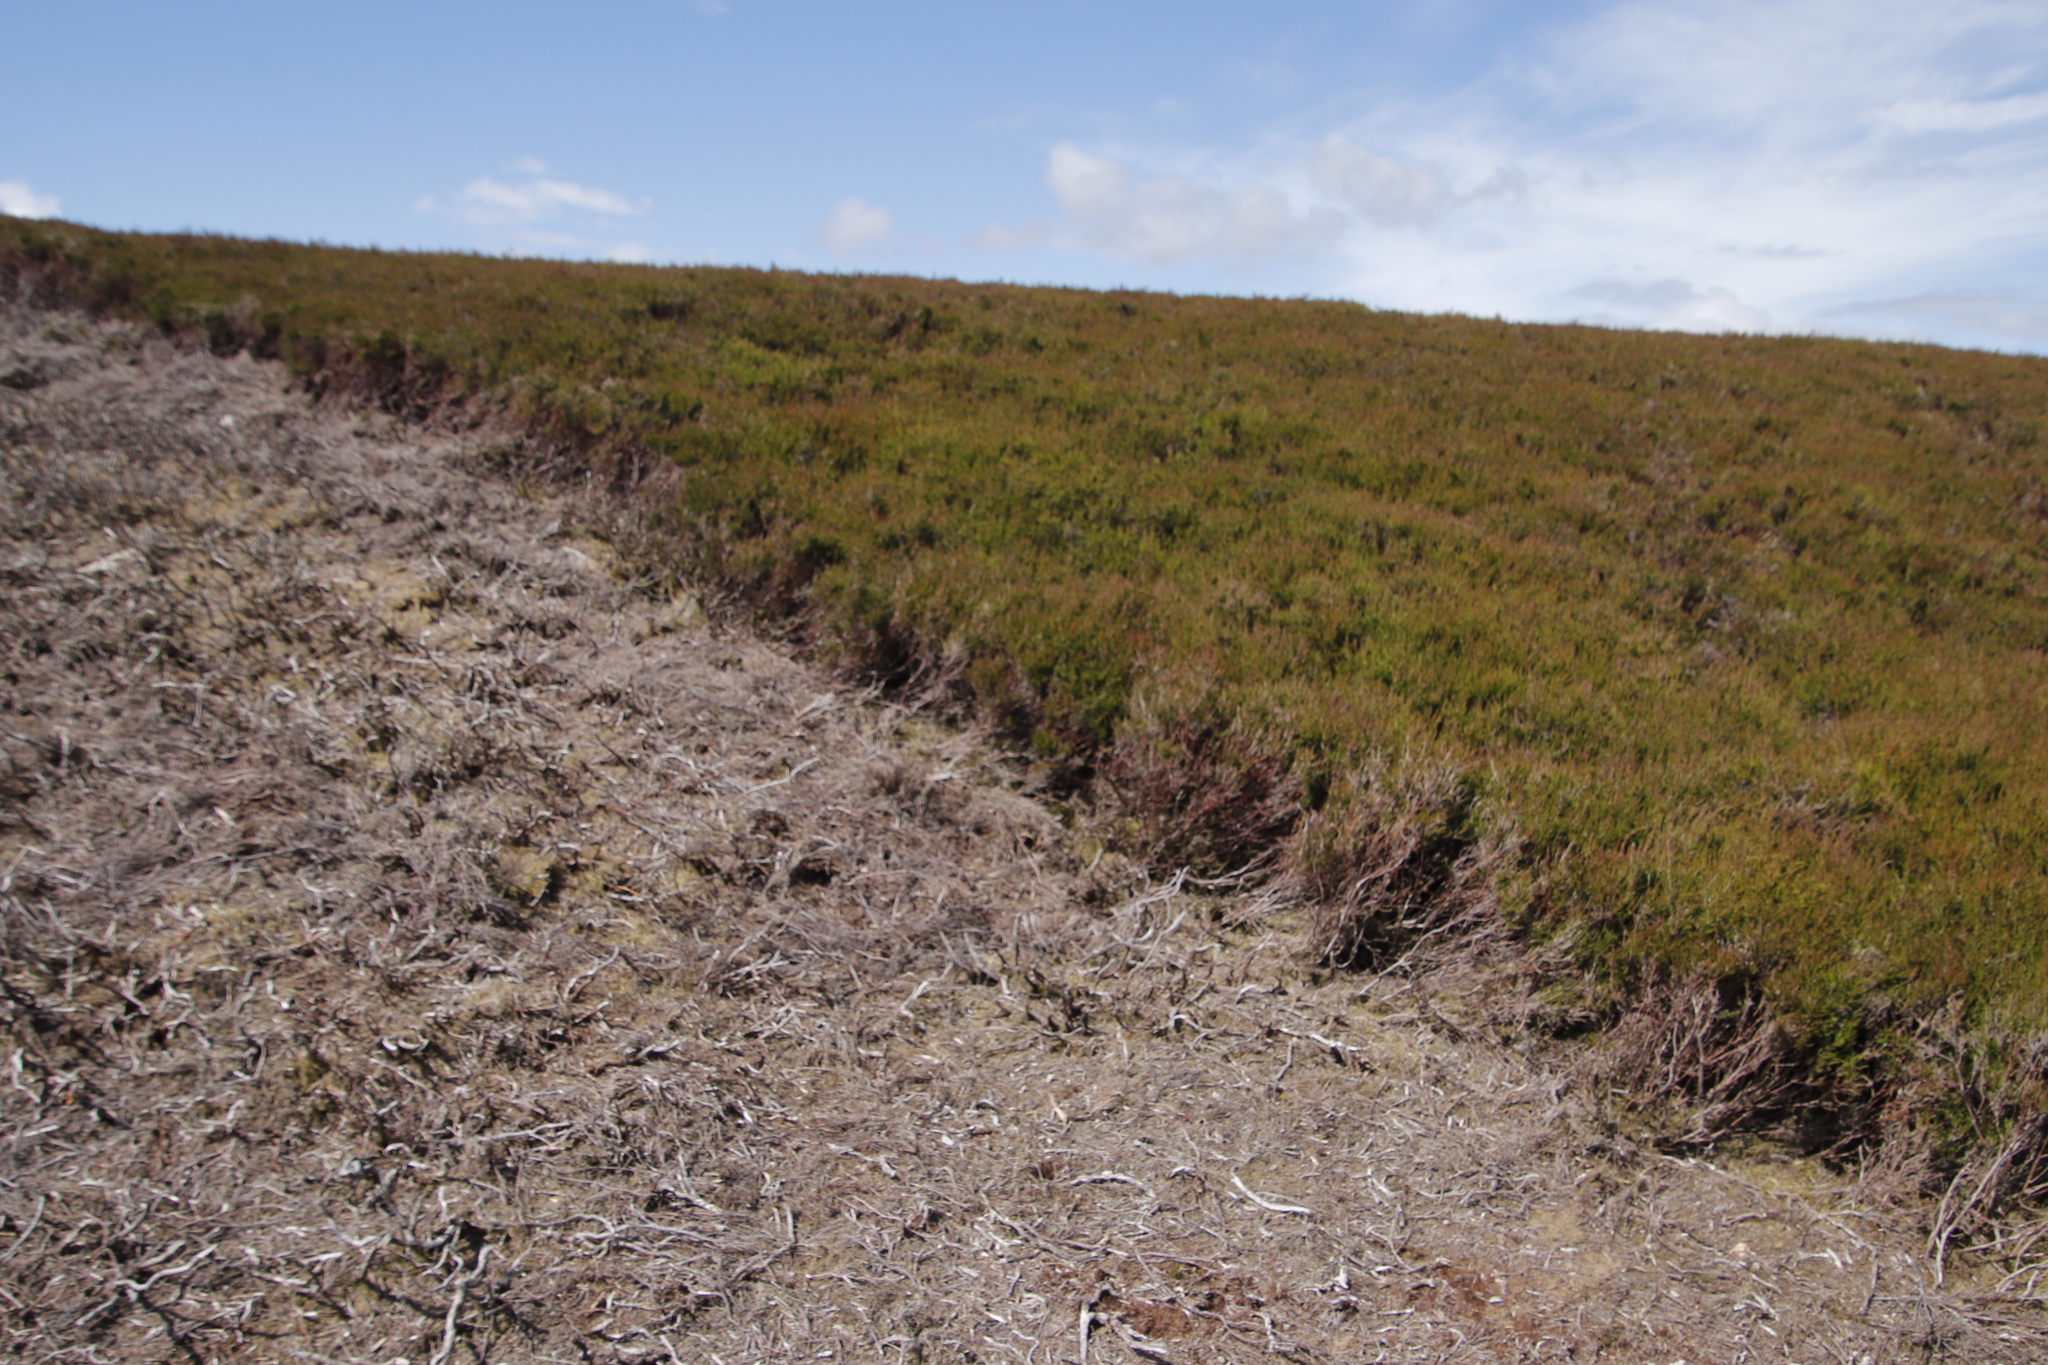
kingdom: Plantae
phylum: Tracheophyta
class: Magnoliopsida
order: Ericales
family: Ericaceae
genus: Calluna
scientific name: Calluna vulgaris
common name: Heather
